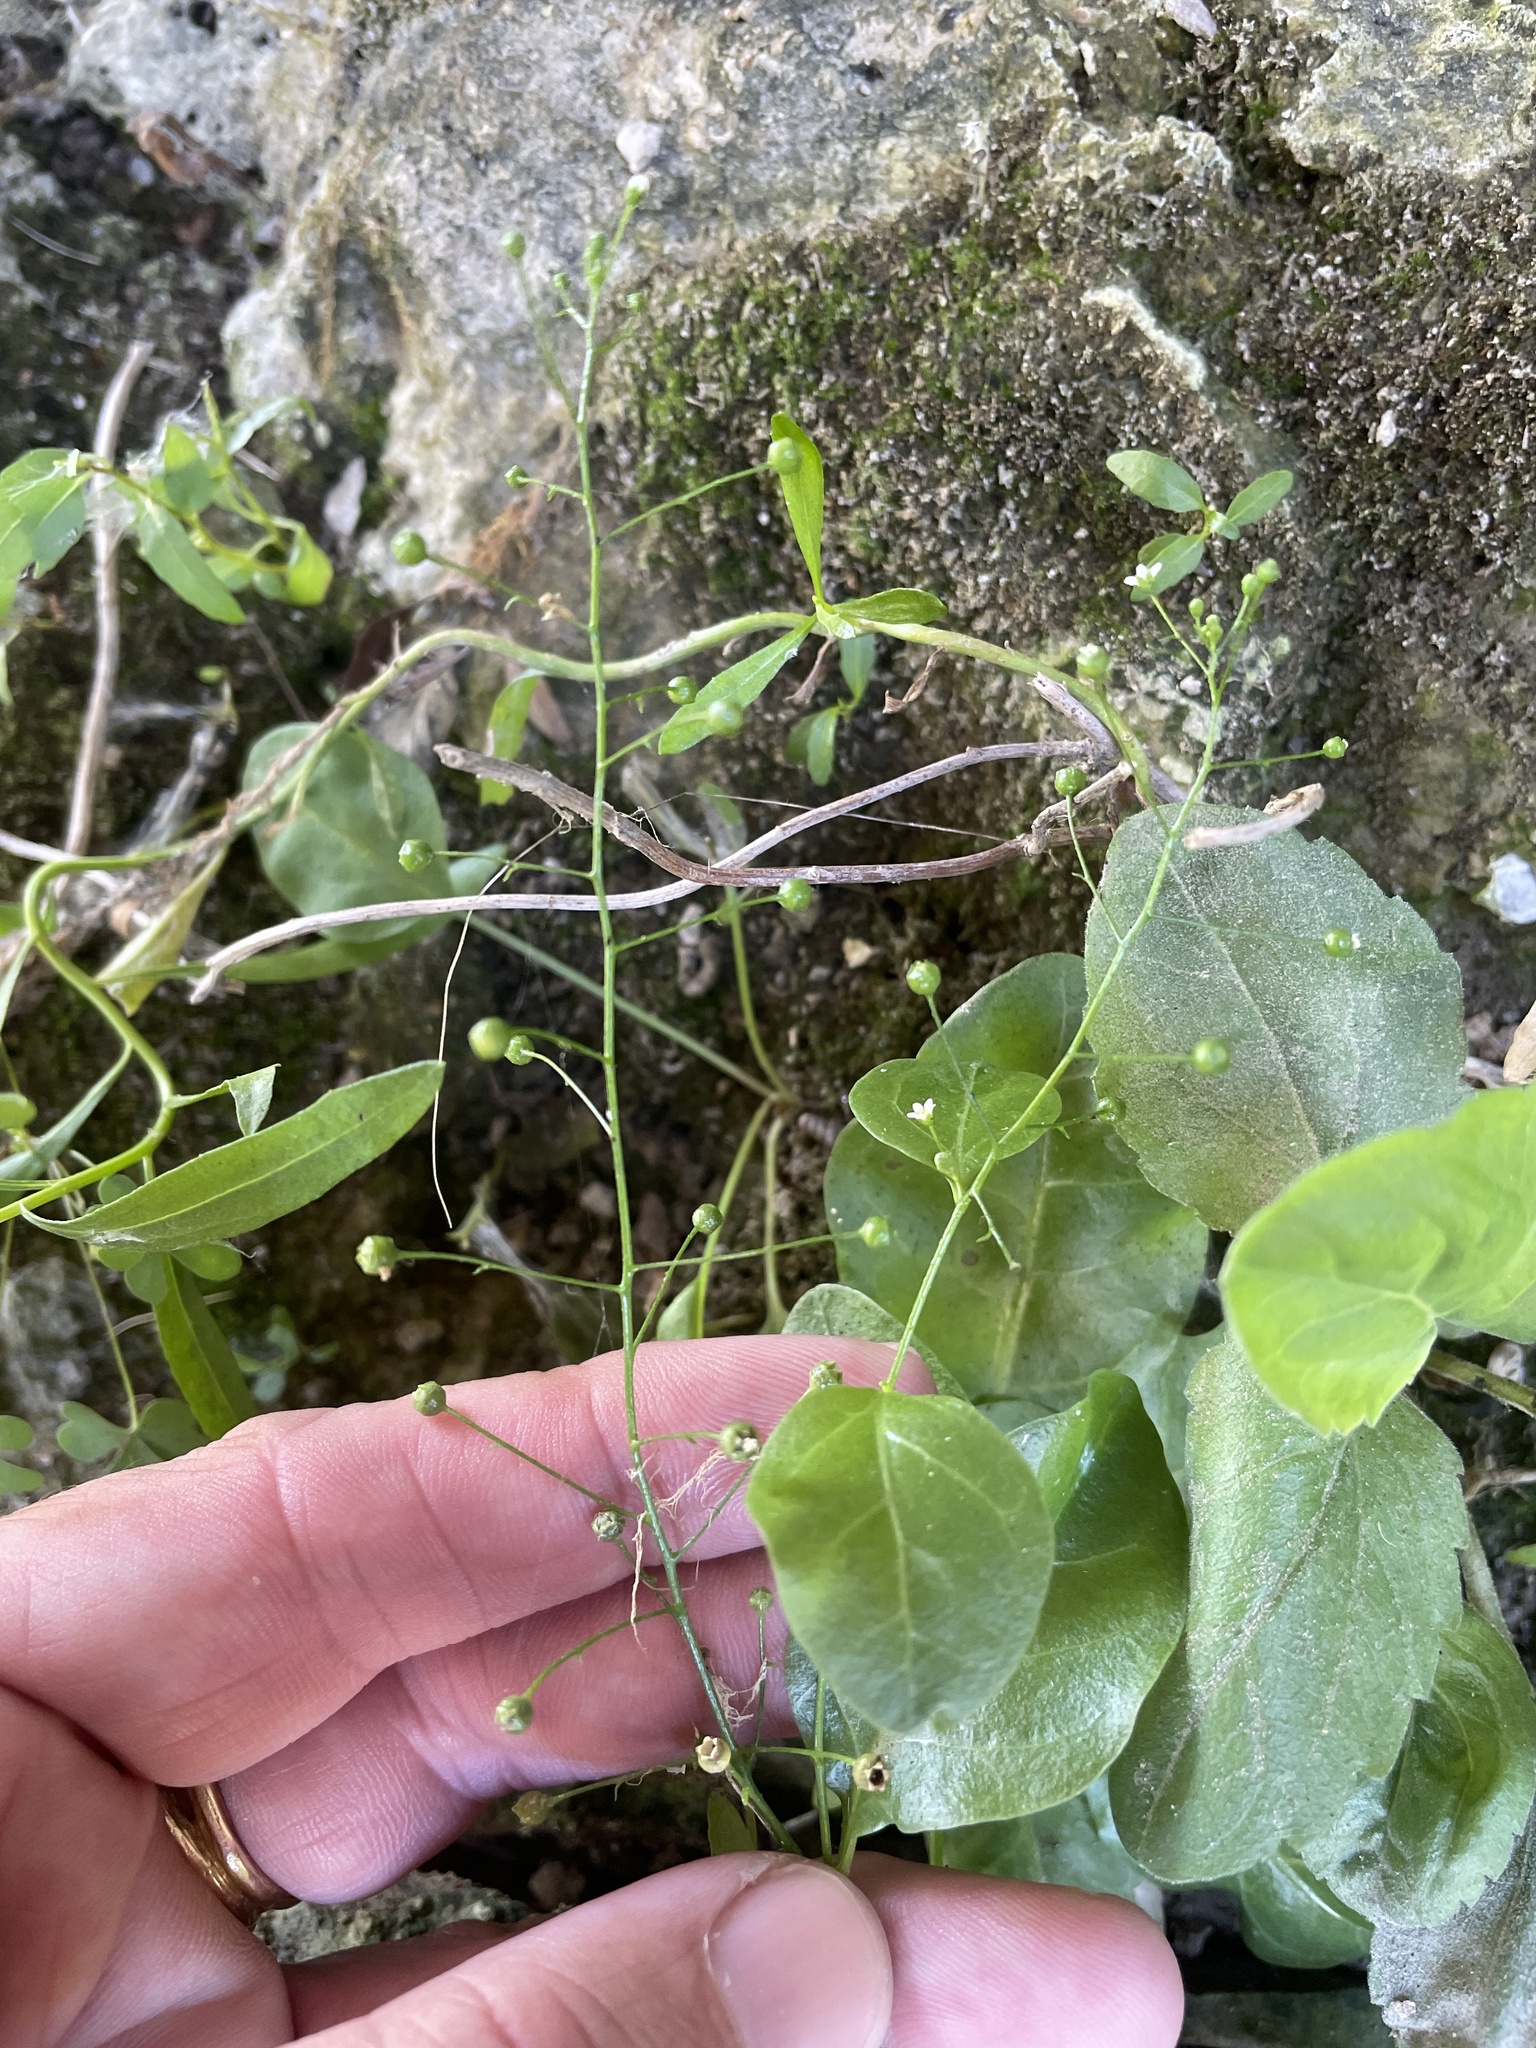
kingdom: Plantae
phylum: Tracheophyta
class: Magnoliopsida
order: Ericales
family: Primulaceae
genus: Samolus
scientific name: Samolus parviflorus
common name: False water pimpernel
